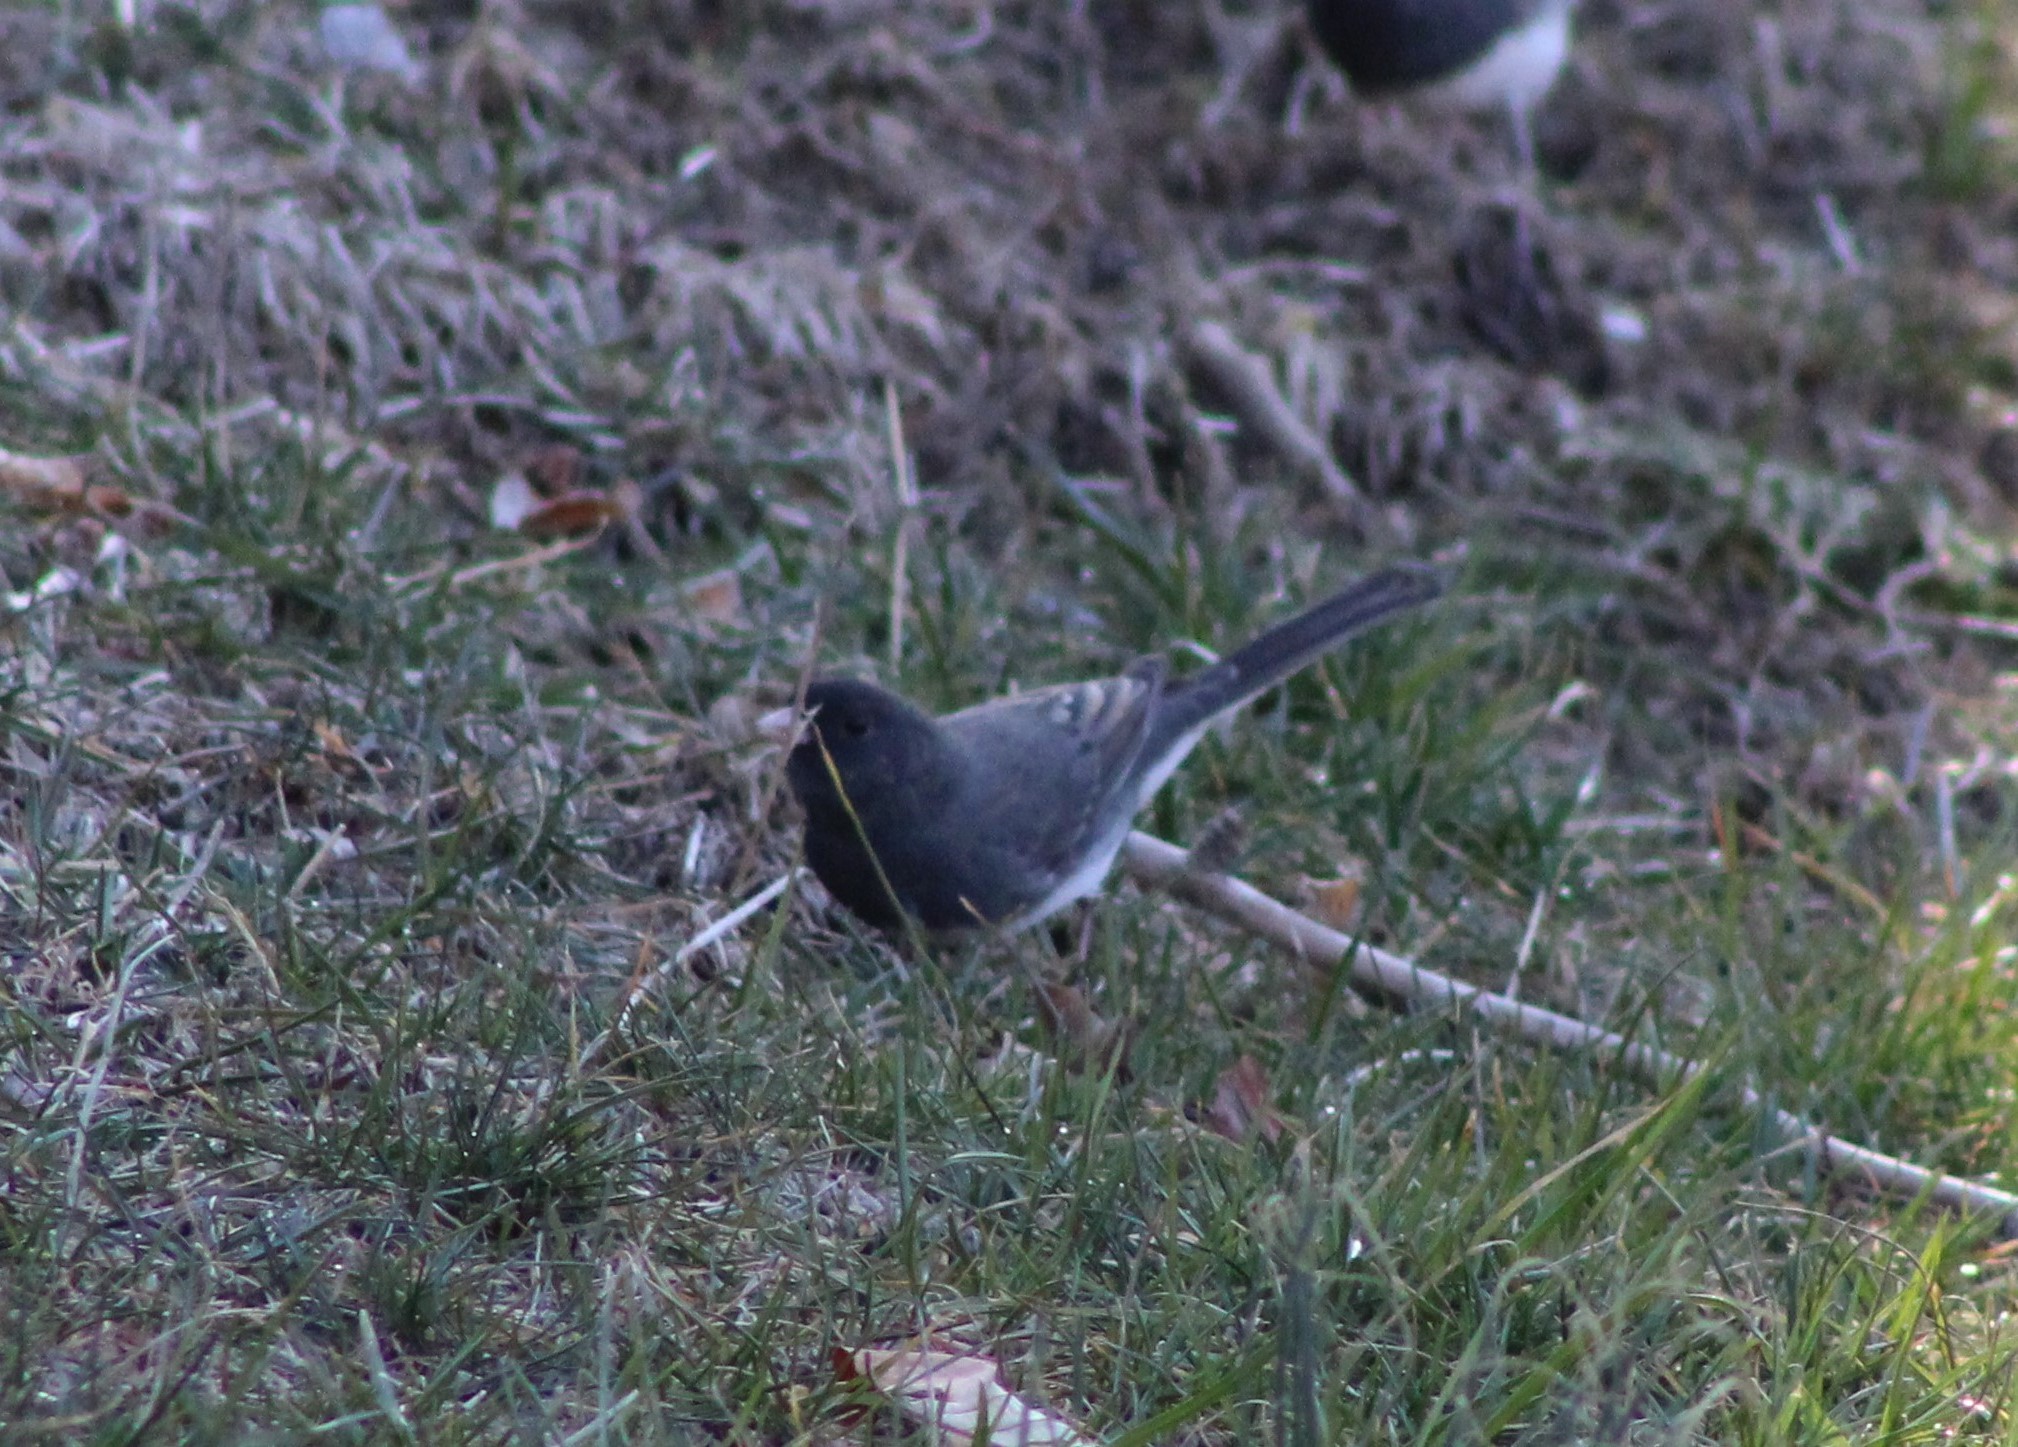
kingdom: Animalia
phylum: Chordata
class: Aves
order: Passeriformes
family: Passerellidae
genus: Junco
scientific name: Junco hyemalis
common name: Dark-eyed junco
